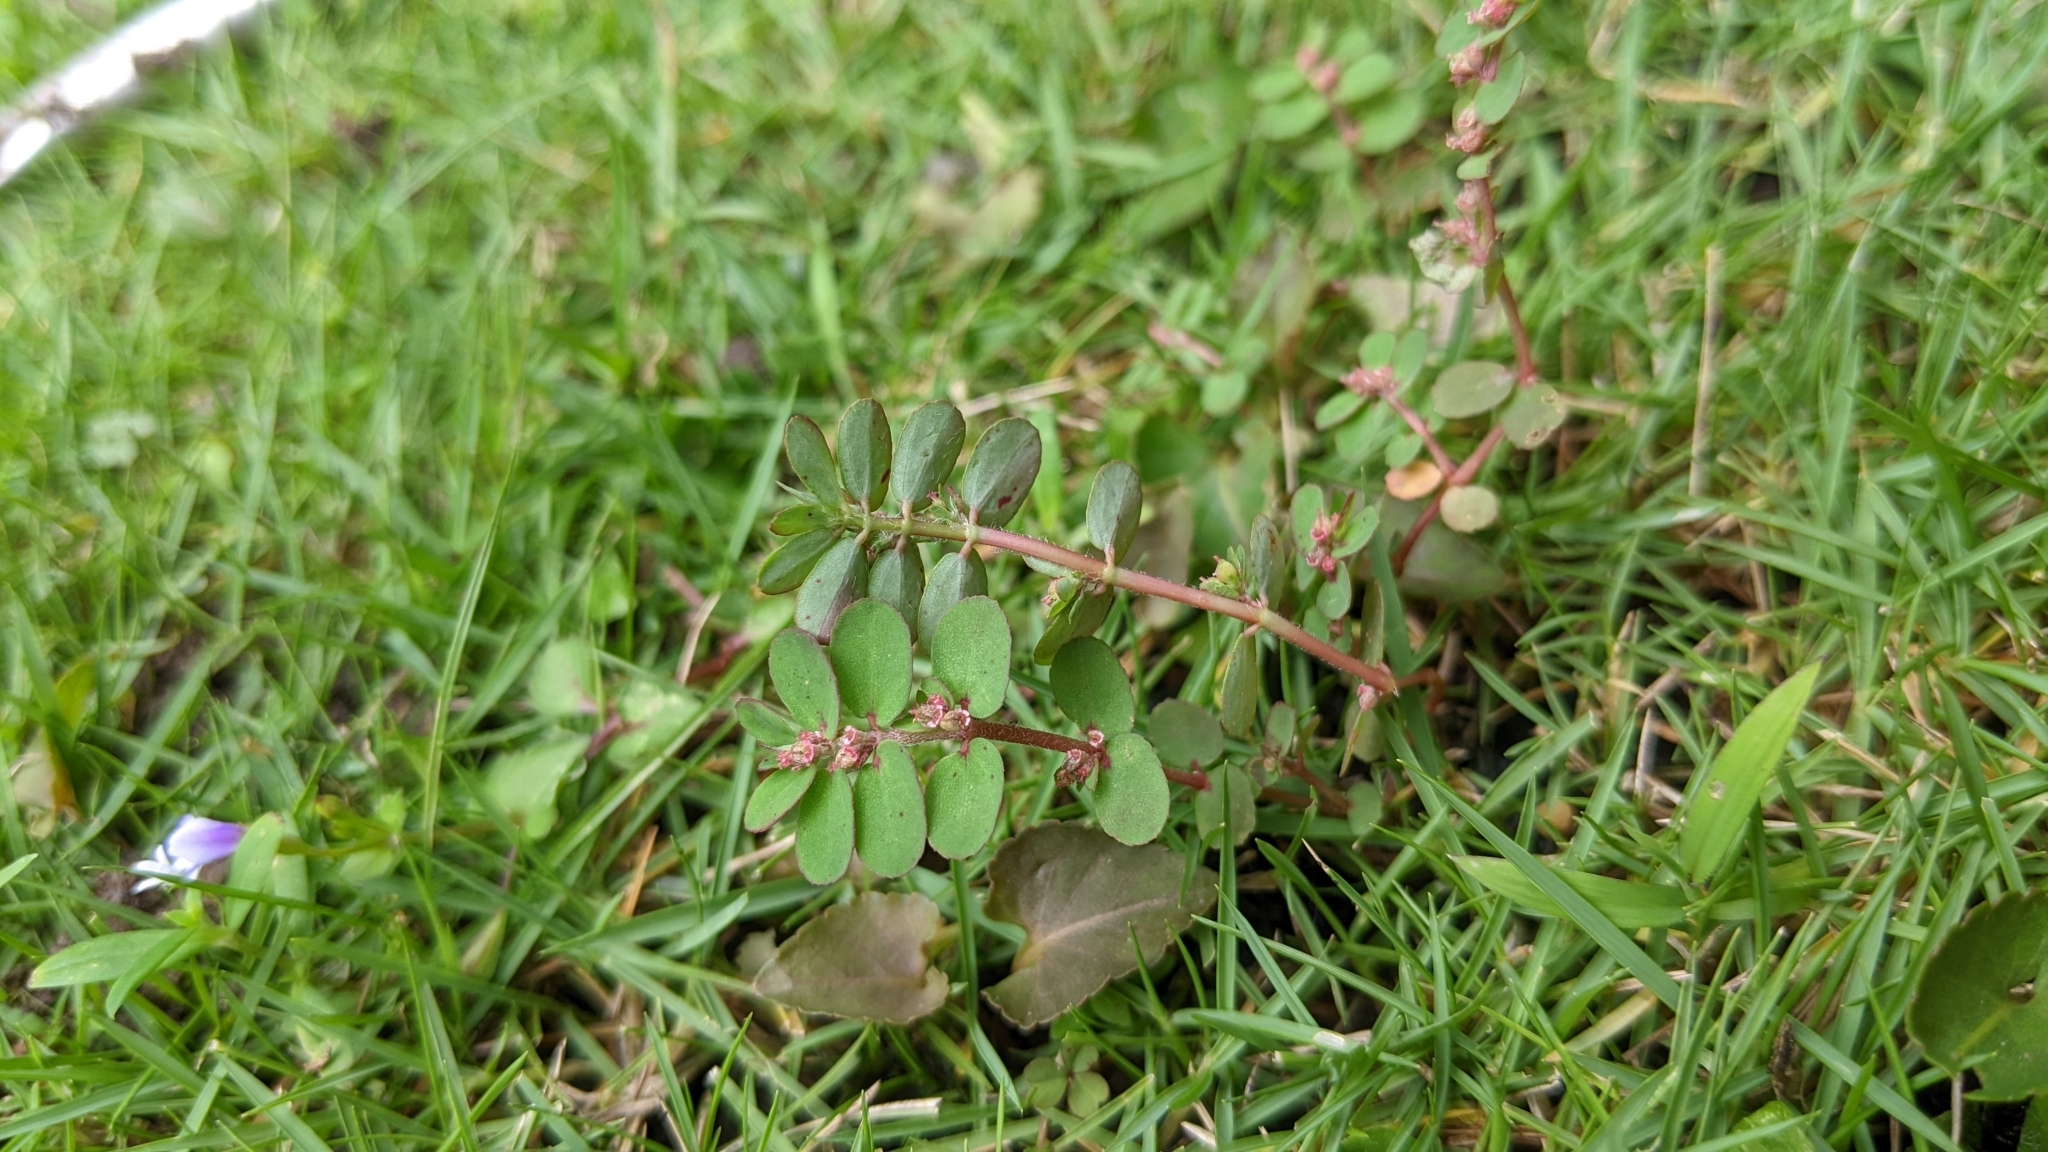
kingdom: Plantae
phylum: Tracheophyta
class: Magnoliopsida
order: Malpighiales
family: Euphorbiaceae
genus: Euphorbia
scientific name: Euphorbia thymifolia
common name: Gulf sandmat
